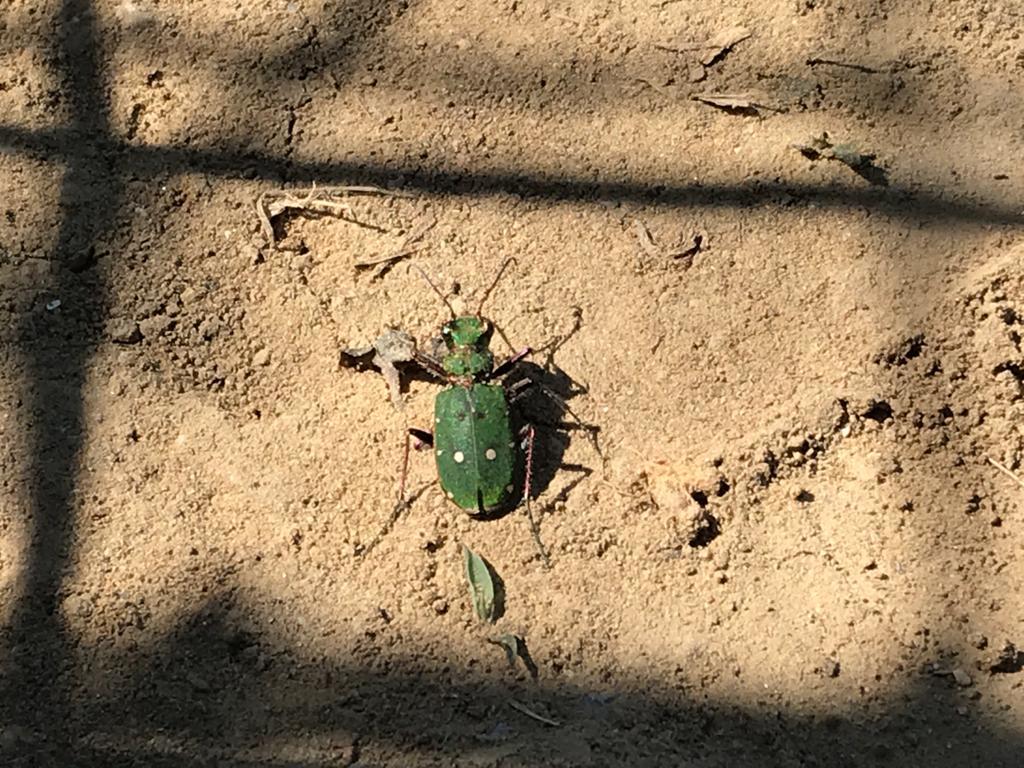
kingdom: Animalia
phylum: Arthropoda
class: Insecta
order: Coleoptera
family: Carabidae
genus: Cicindela
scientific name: Cicindela campestris
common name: Common tiger beetle
